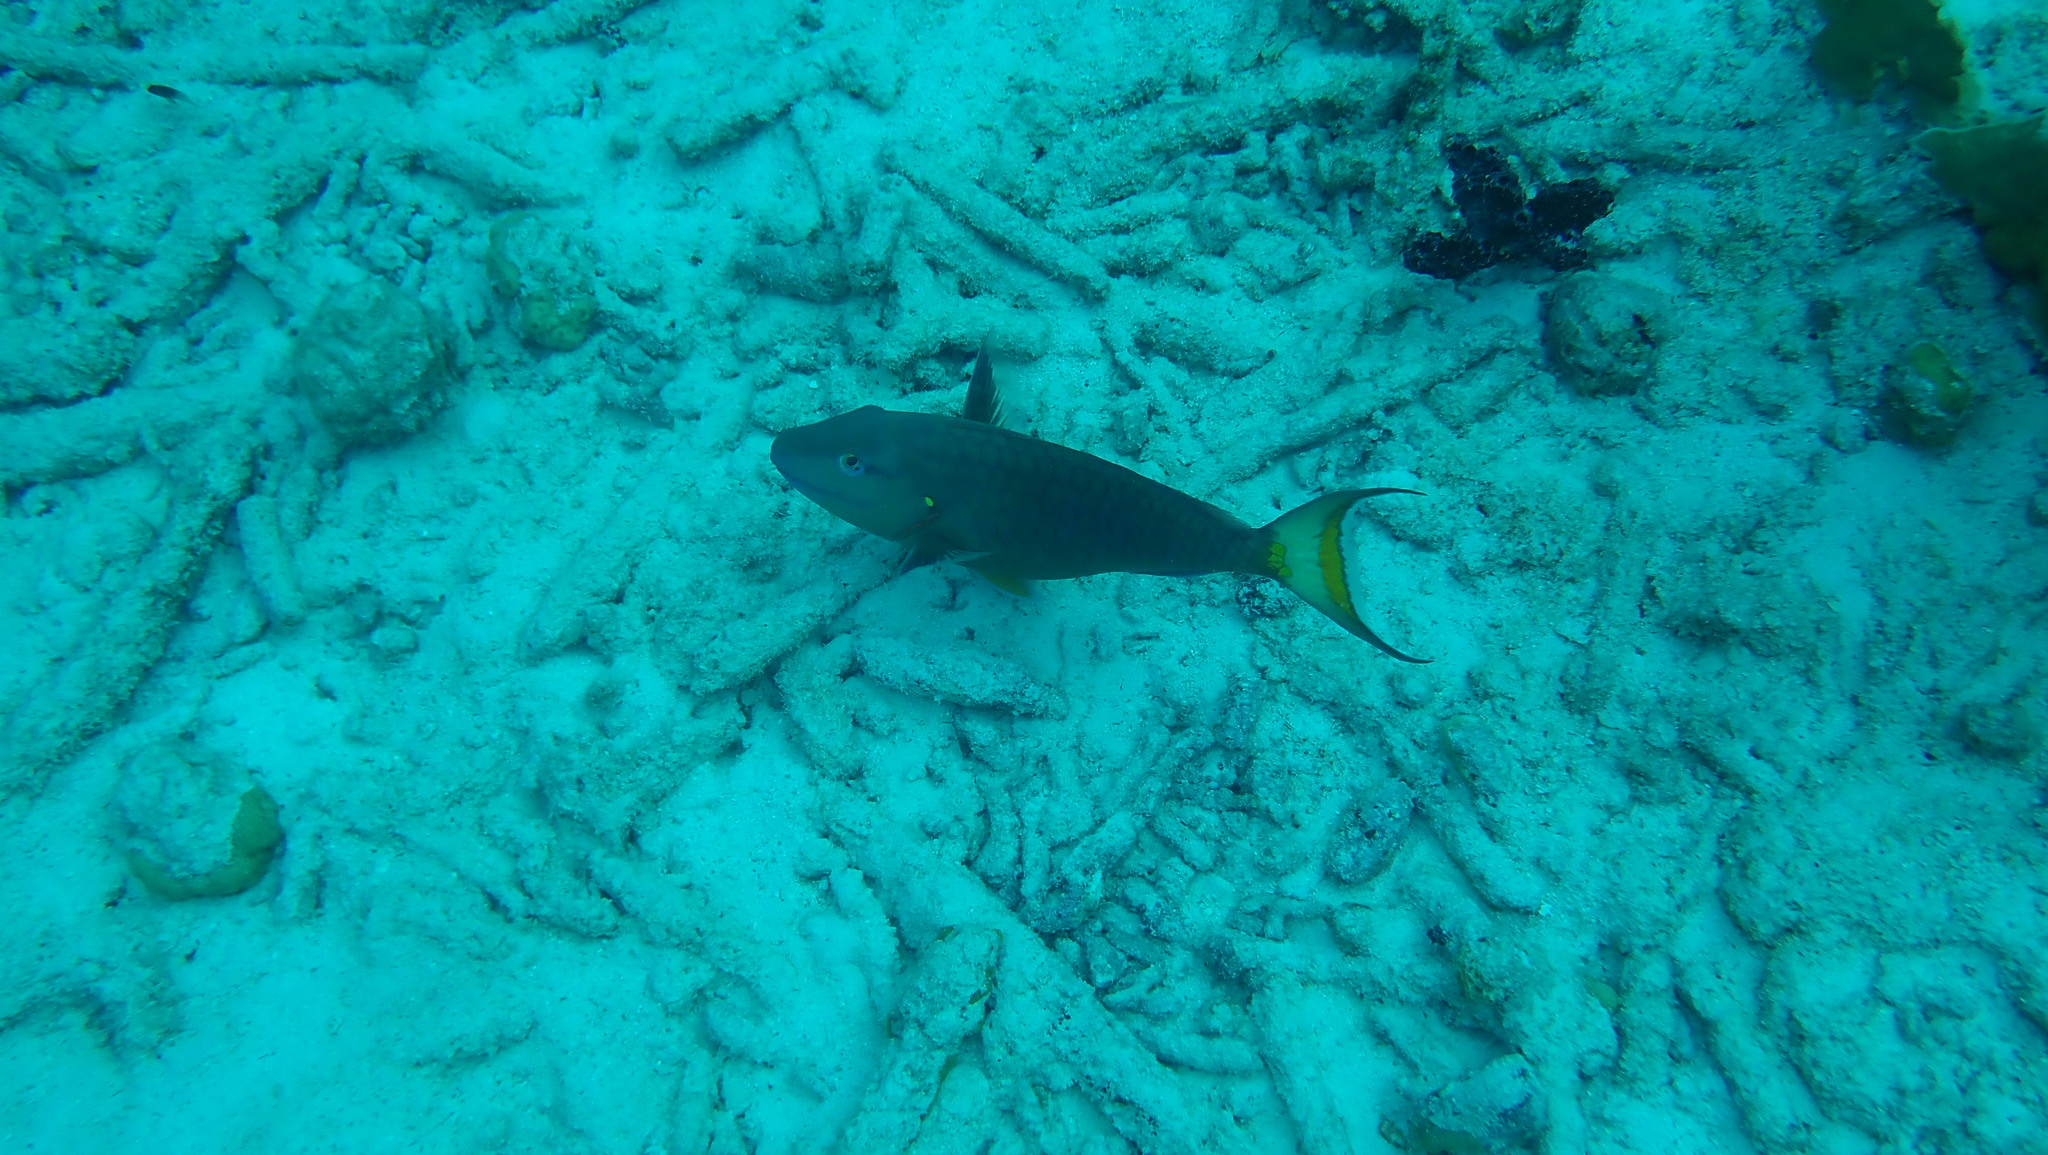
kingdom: Animalia
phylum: Chordata
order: Perciformes
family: Scaridae
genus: Sparisoma
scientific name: Sparisoma viride
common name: Stoplight parrotfish
